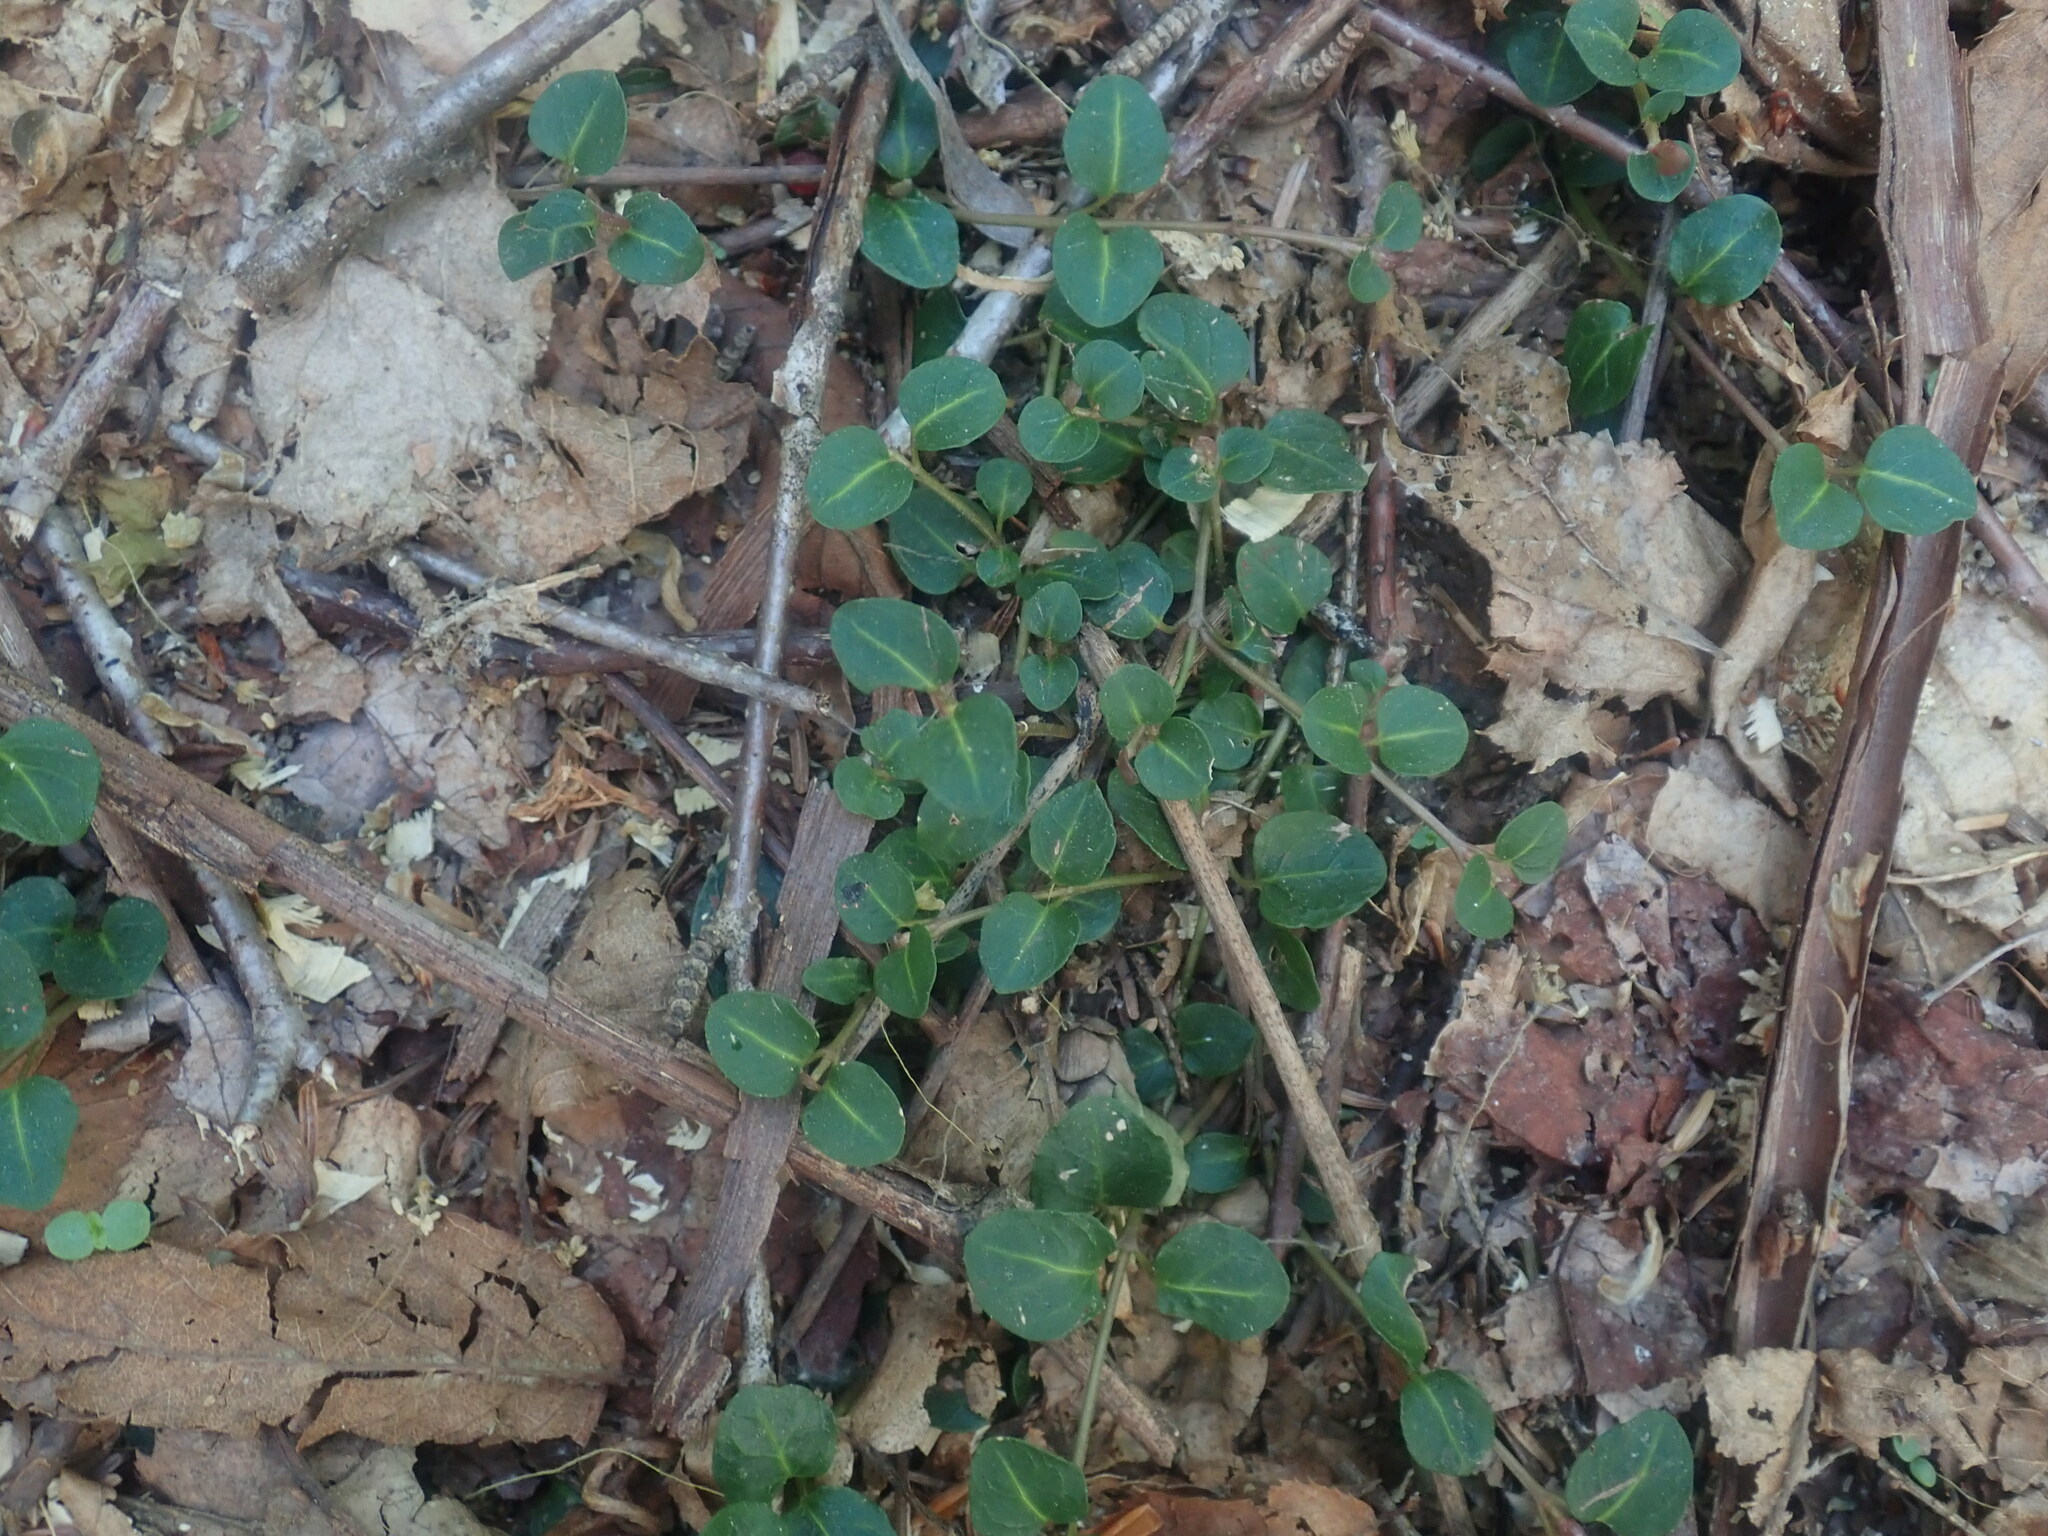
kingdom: Plantae
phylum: Tracheophyta
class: Magnoliopsida
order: Gentianales
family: Rubiaceae
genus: Mitchella
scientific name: Mitchella repens
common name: Partridge-berry
